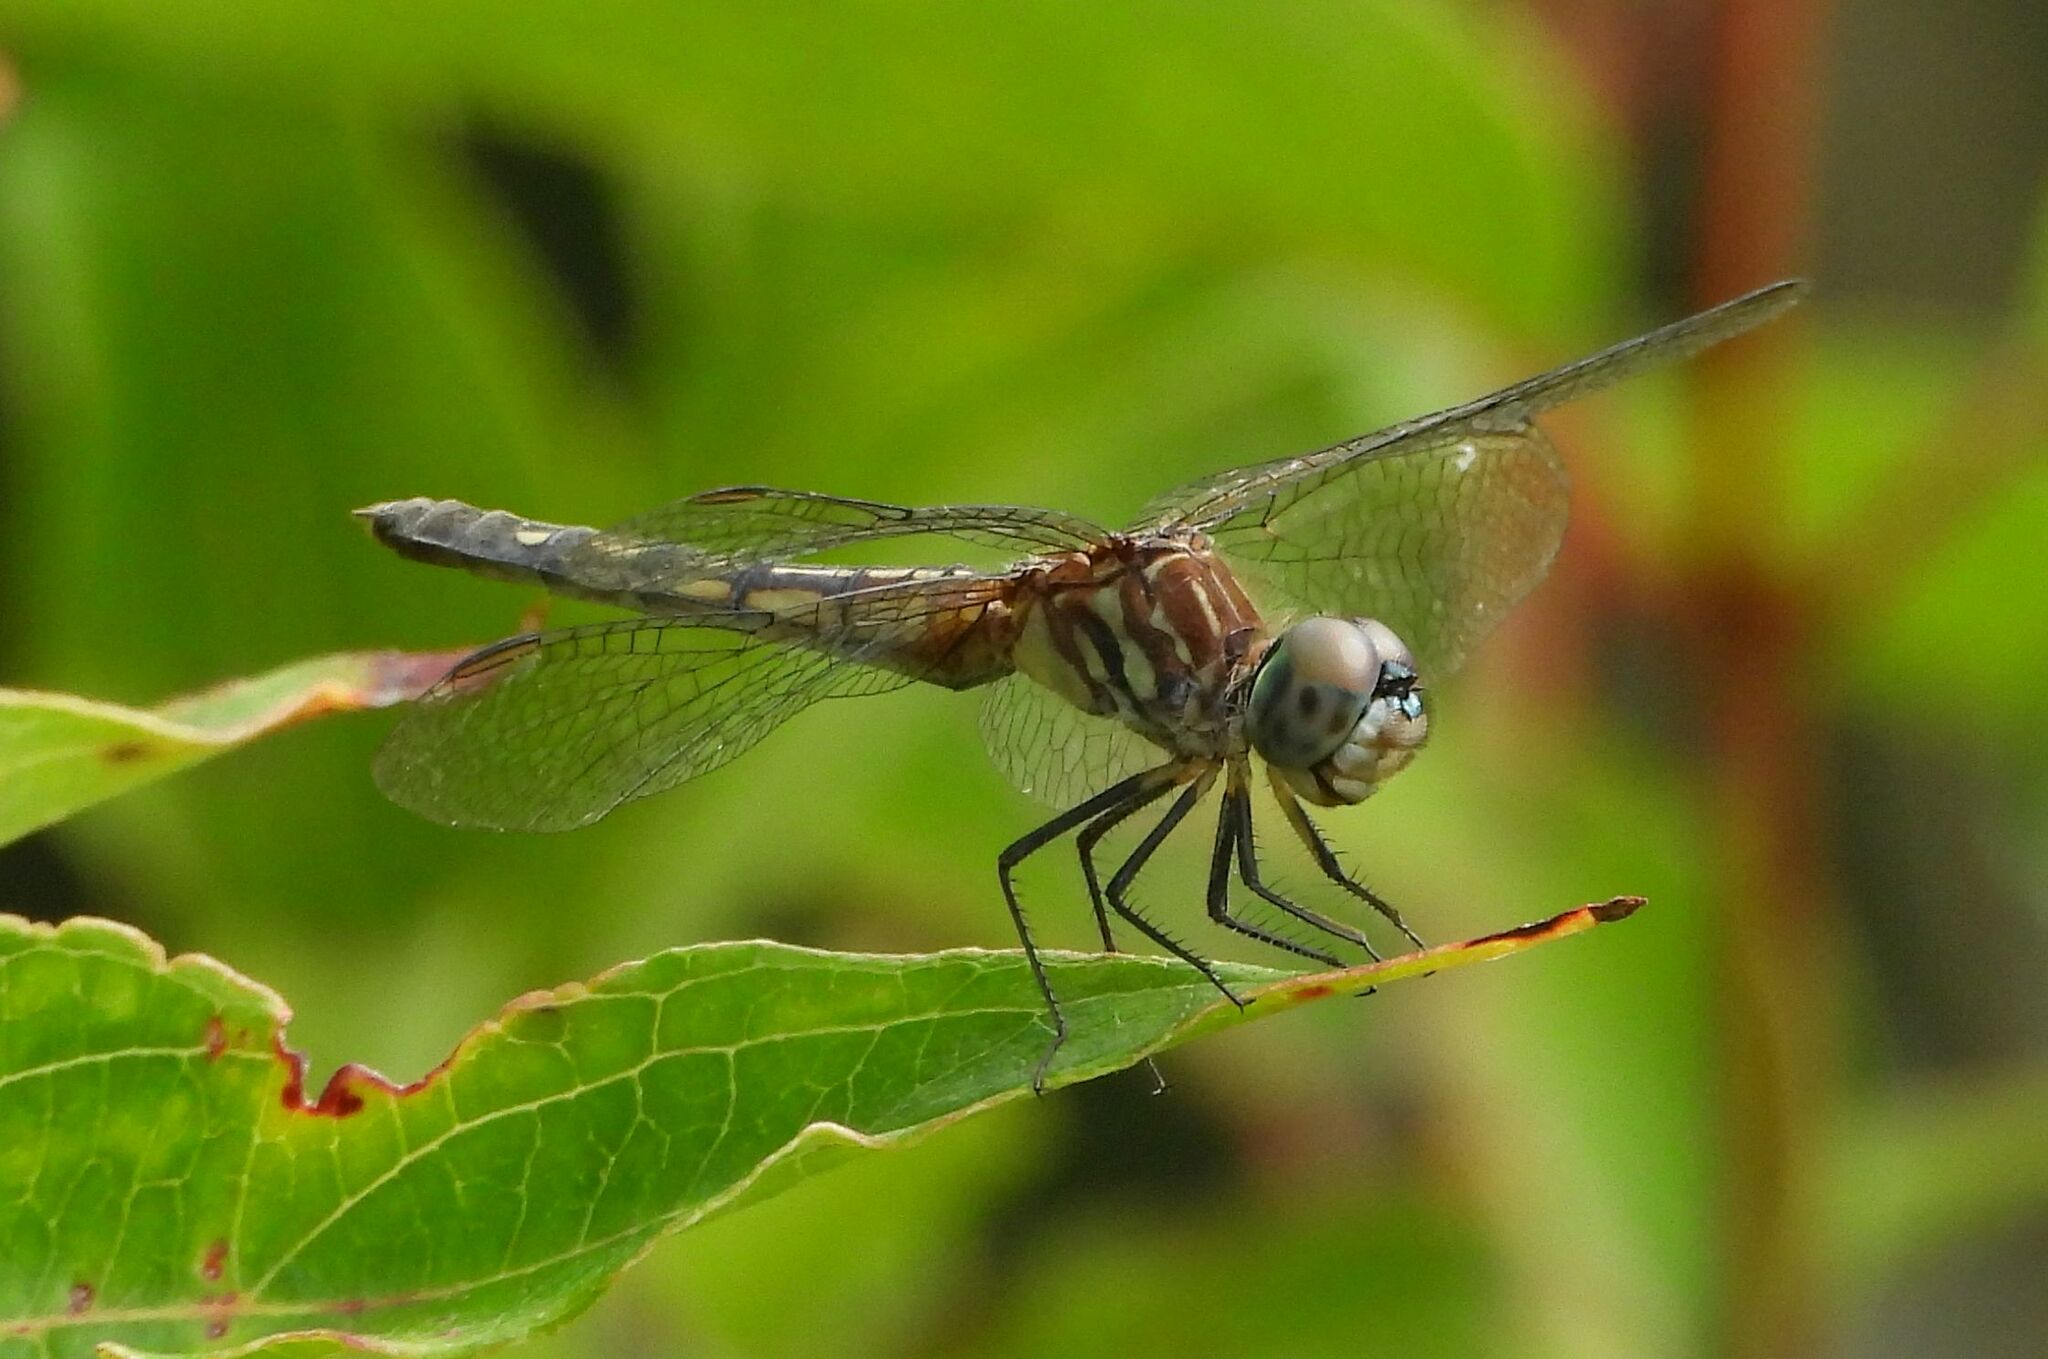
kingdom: Animalia
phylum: Arthropoda
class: Insecta
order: Odonata
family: Libellulidae
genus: Pachydiplax
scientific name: Pachydiplax longipennis
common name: Blue dasher
